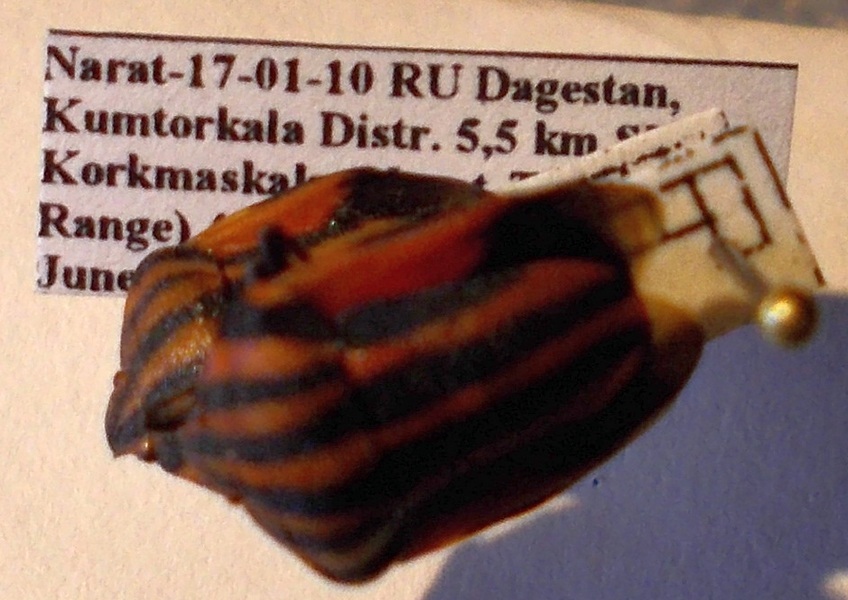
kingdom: Animalia
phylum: Arthropoda
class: Insecta
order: Hemiptera
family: Pentatomidae
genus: Graphosoma
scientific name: Graphosoma italicum
